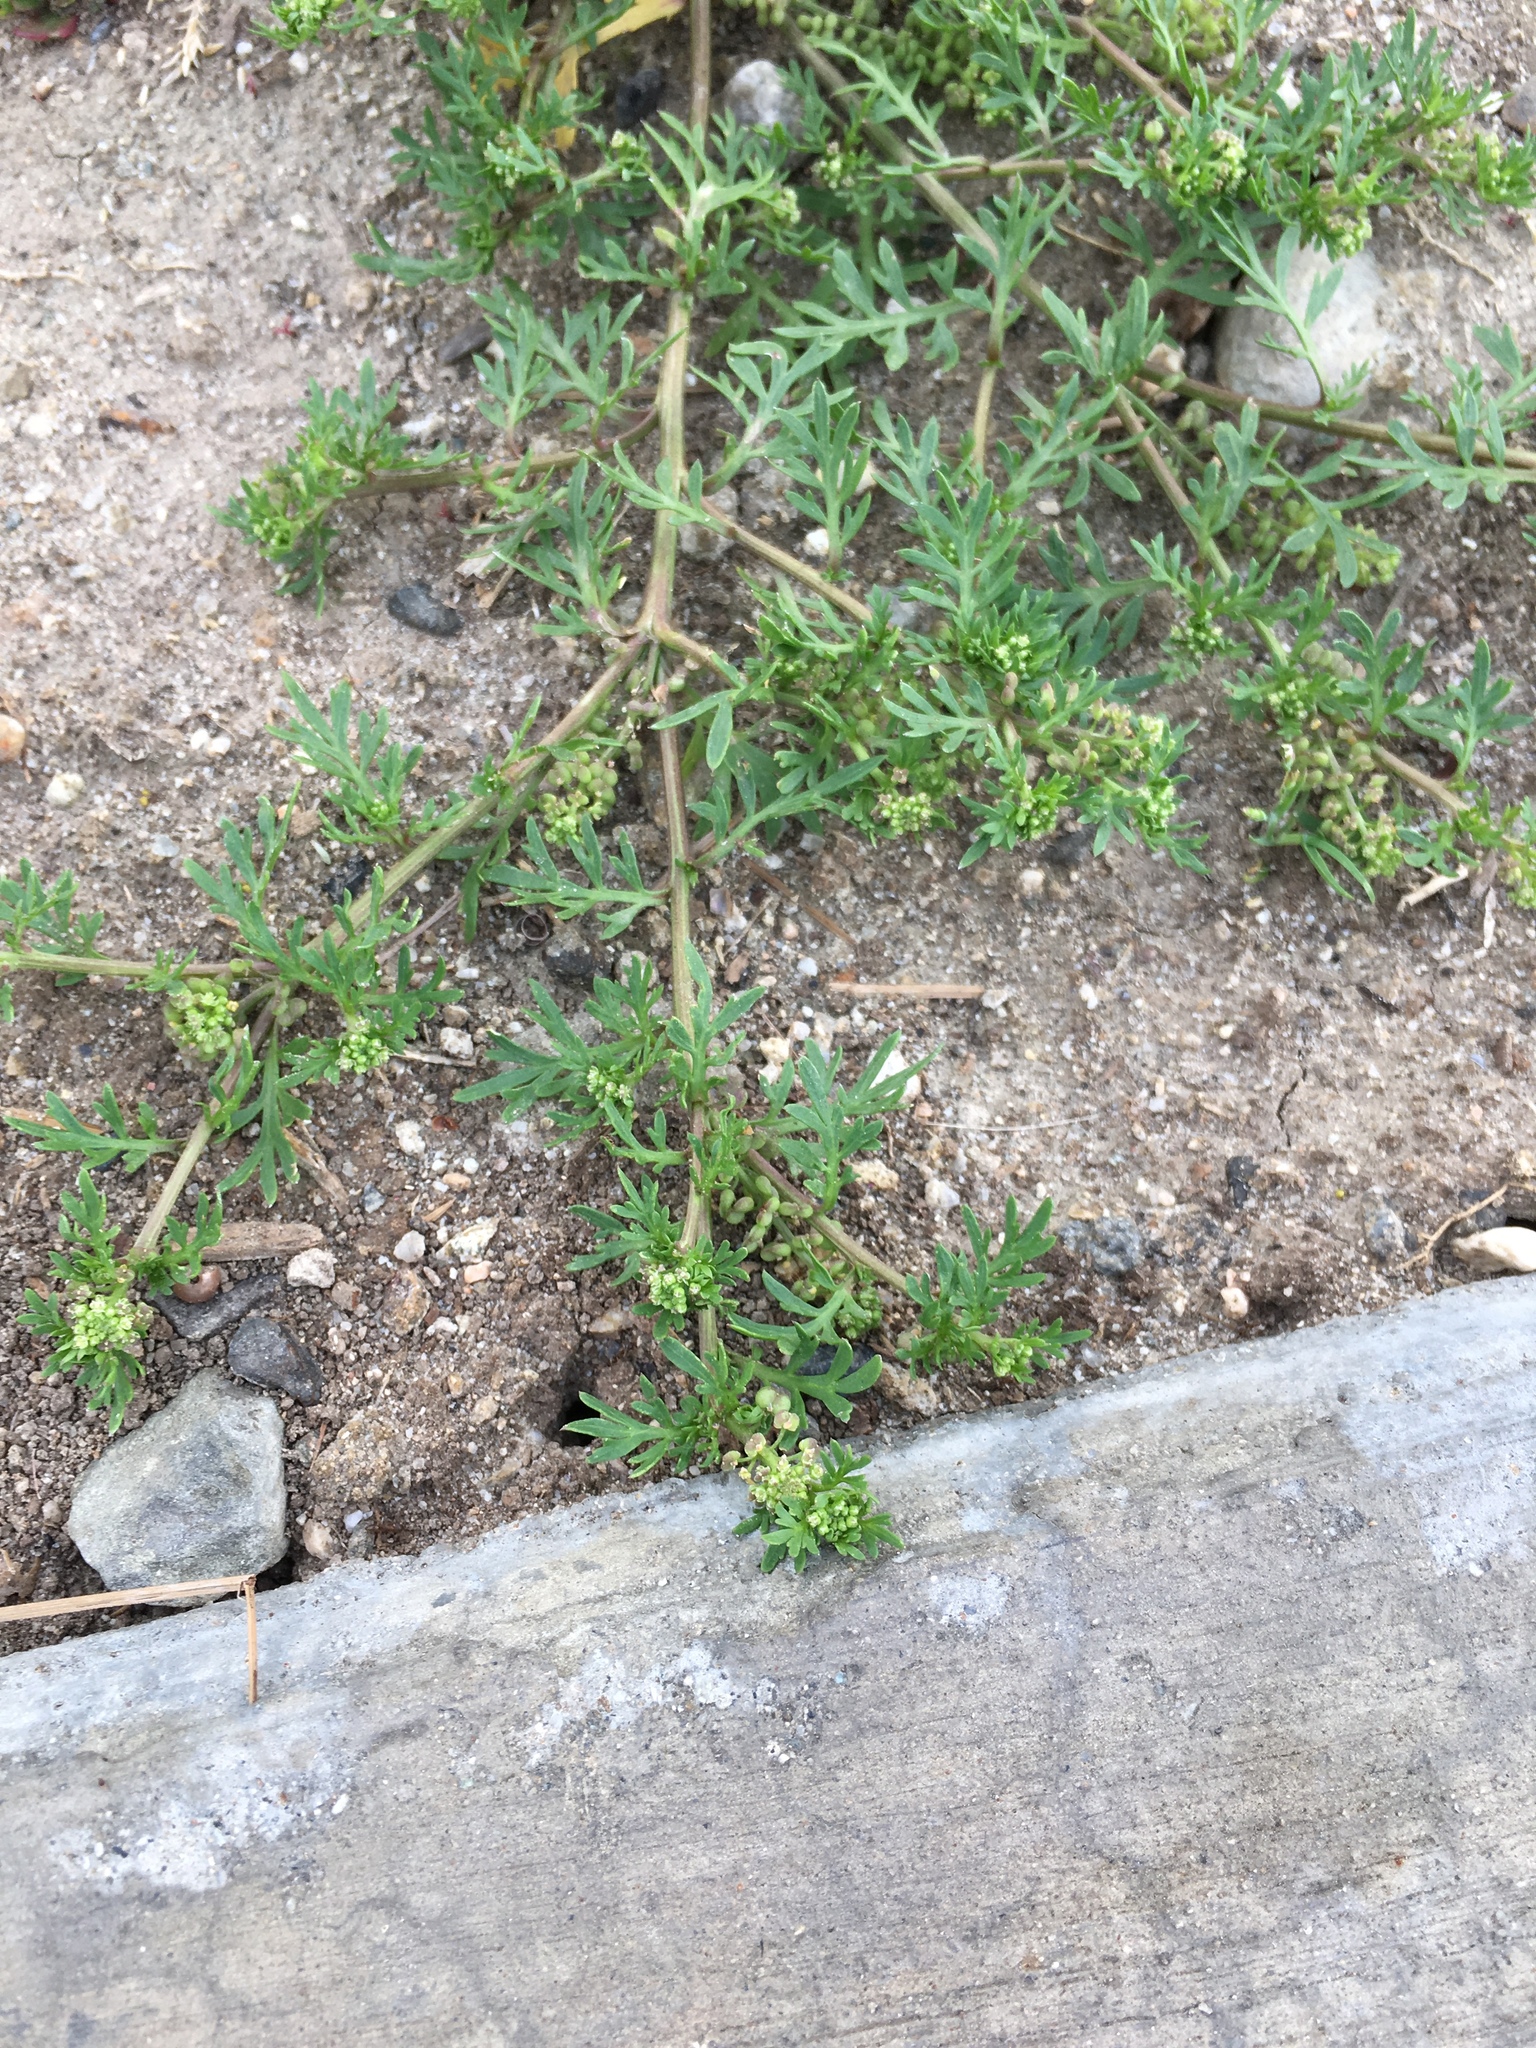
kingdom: Plantae
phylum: Tracheophyta
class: Magnoliopsida
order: Brassicales
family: Brassicaceae
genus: Lepidium
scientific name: Lepidium didymum
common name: Lesser swinecress
